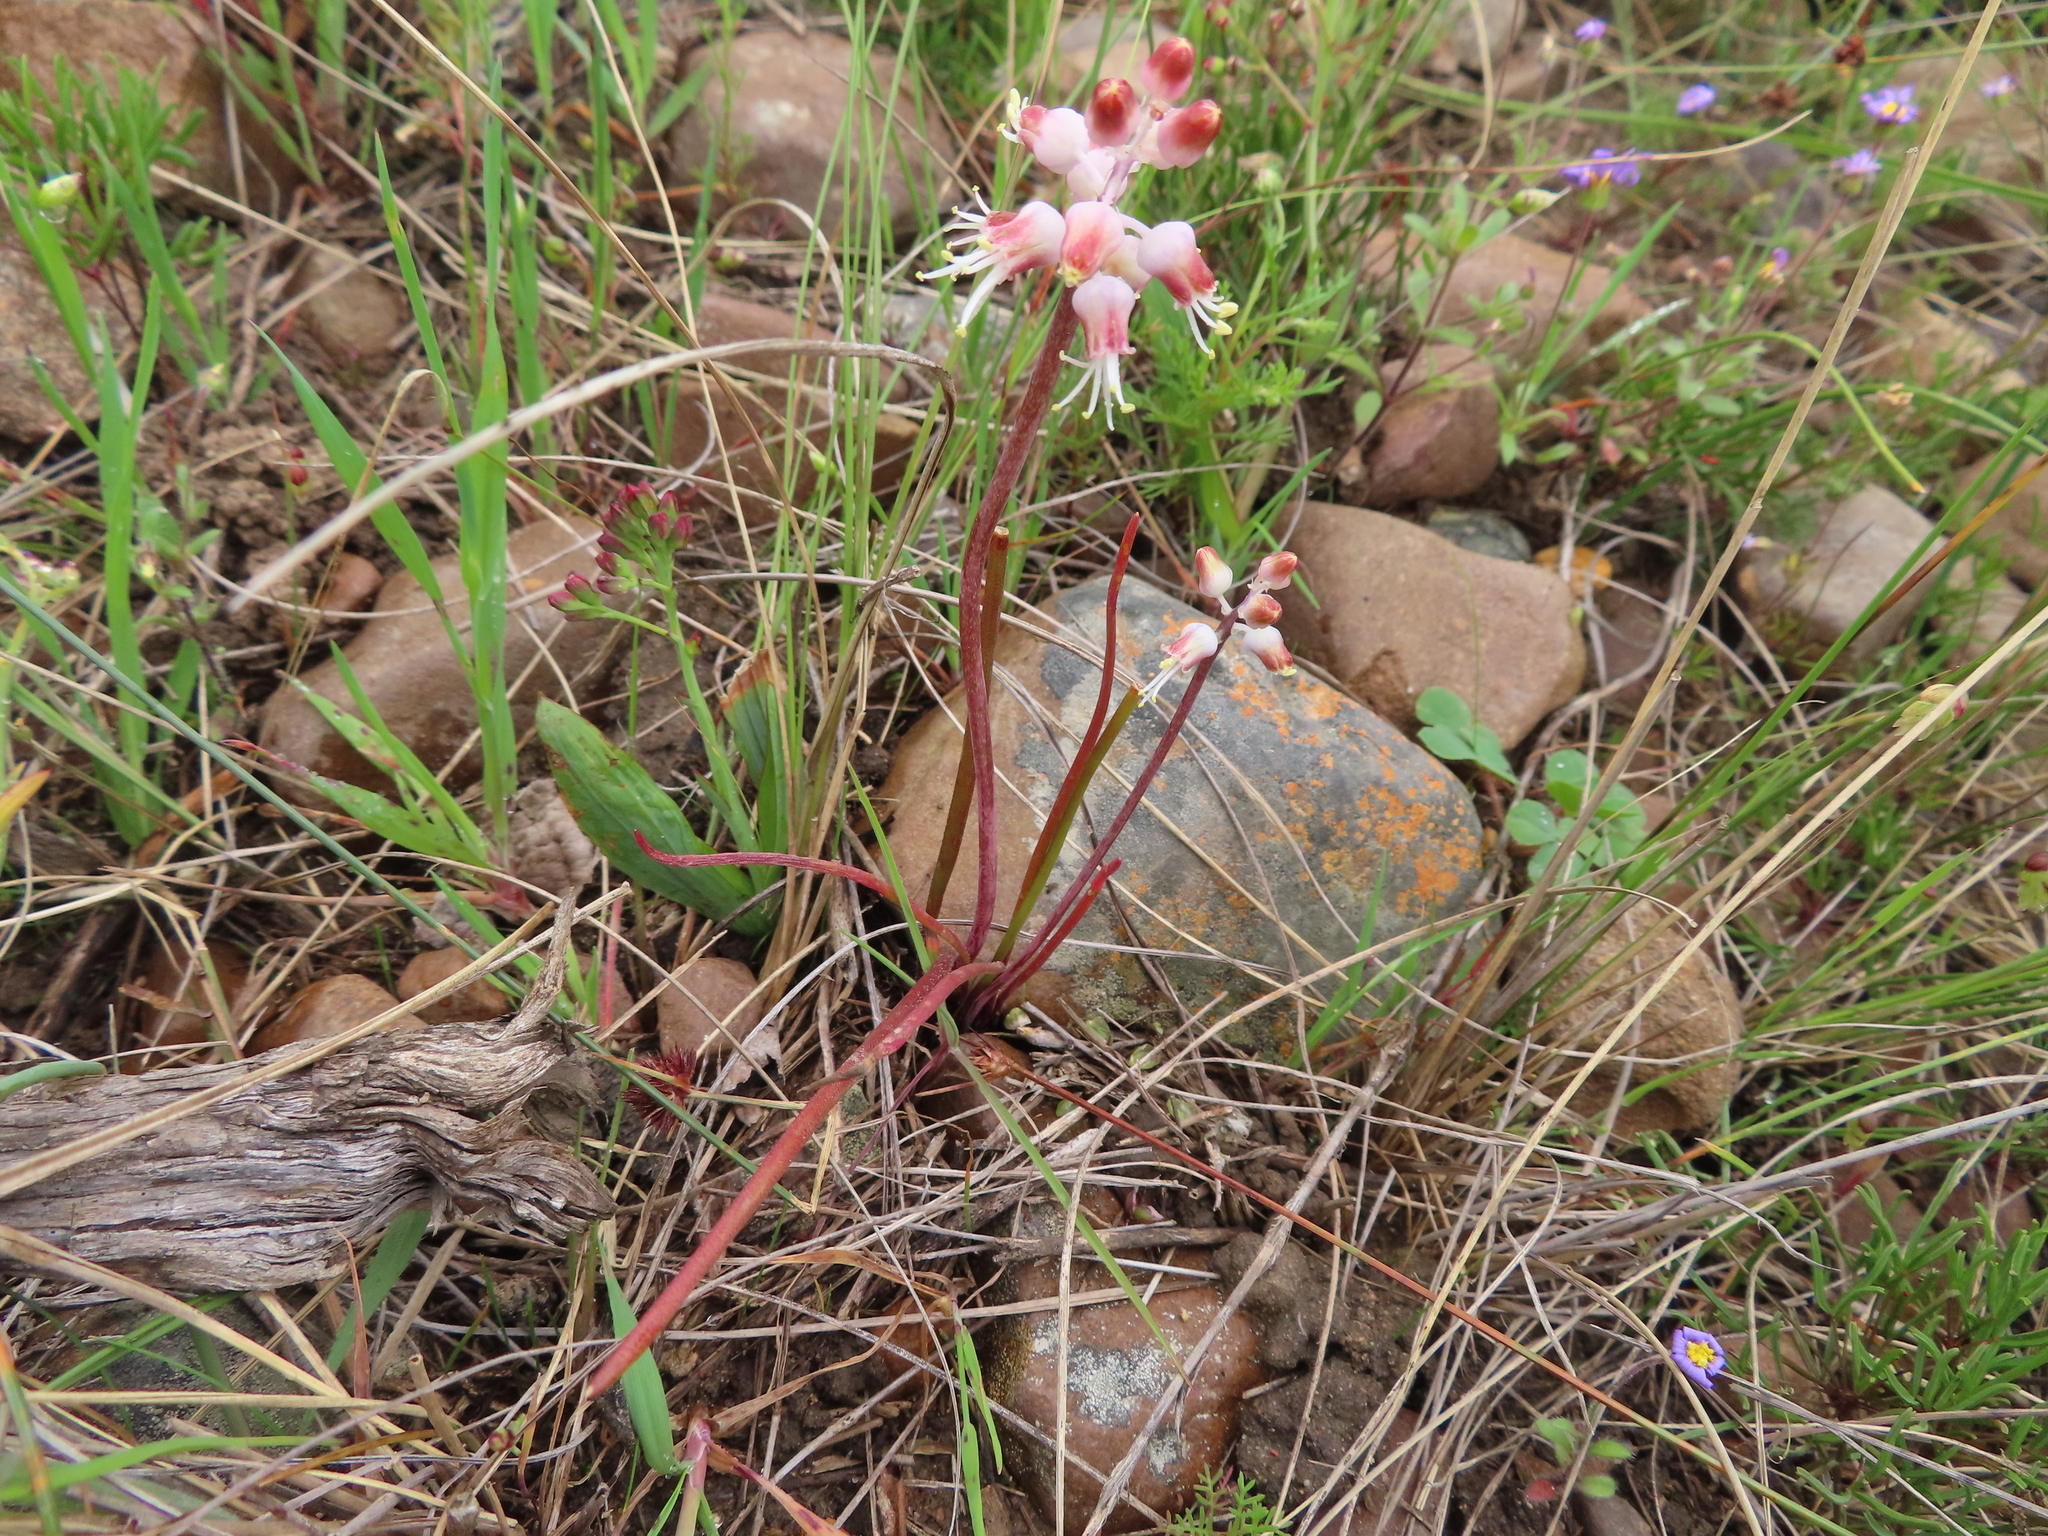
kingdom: Plantae
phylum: Tracheophyta
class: Liliopsida
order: Asparagales
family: Asparagaceae
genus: Lachenalia
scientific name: Lachenalia polyphylla
